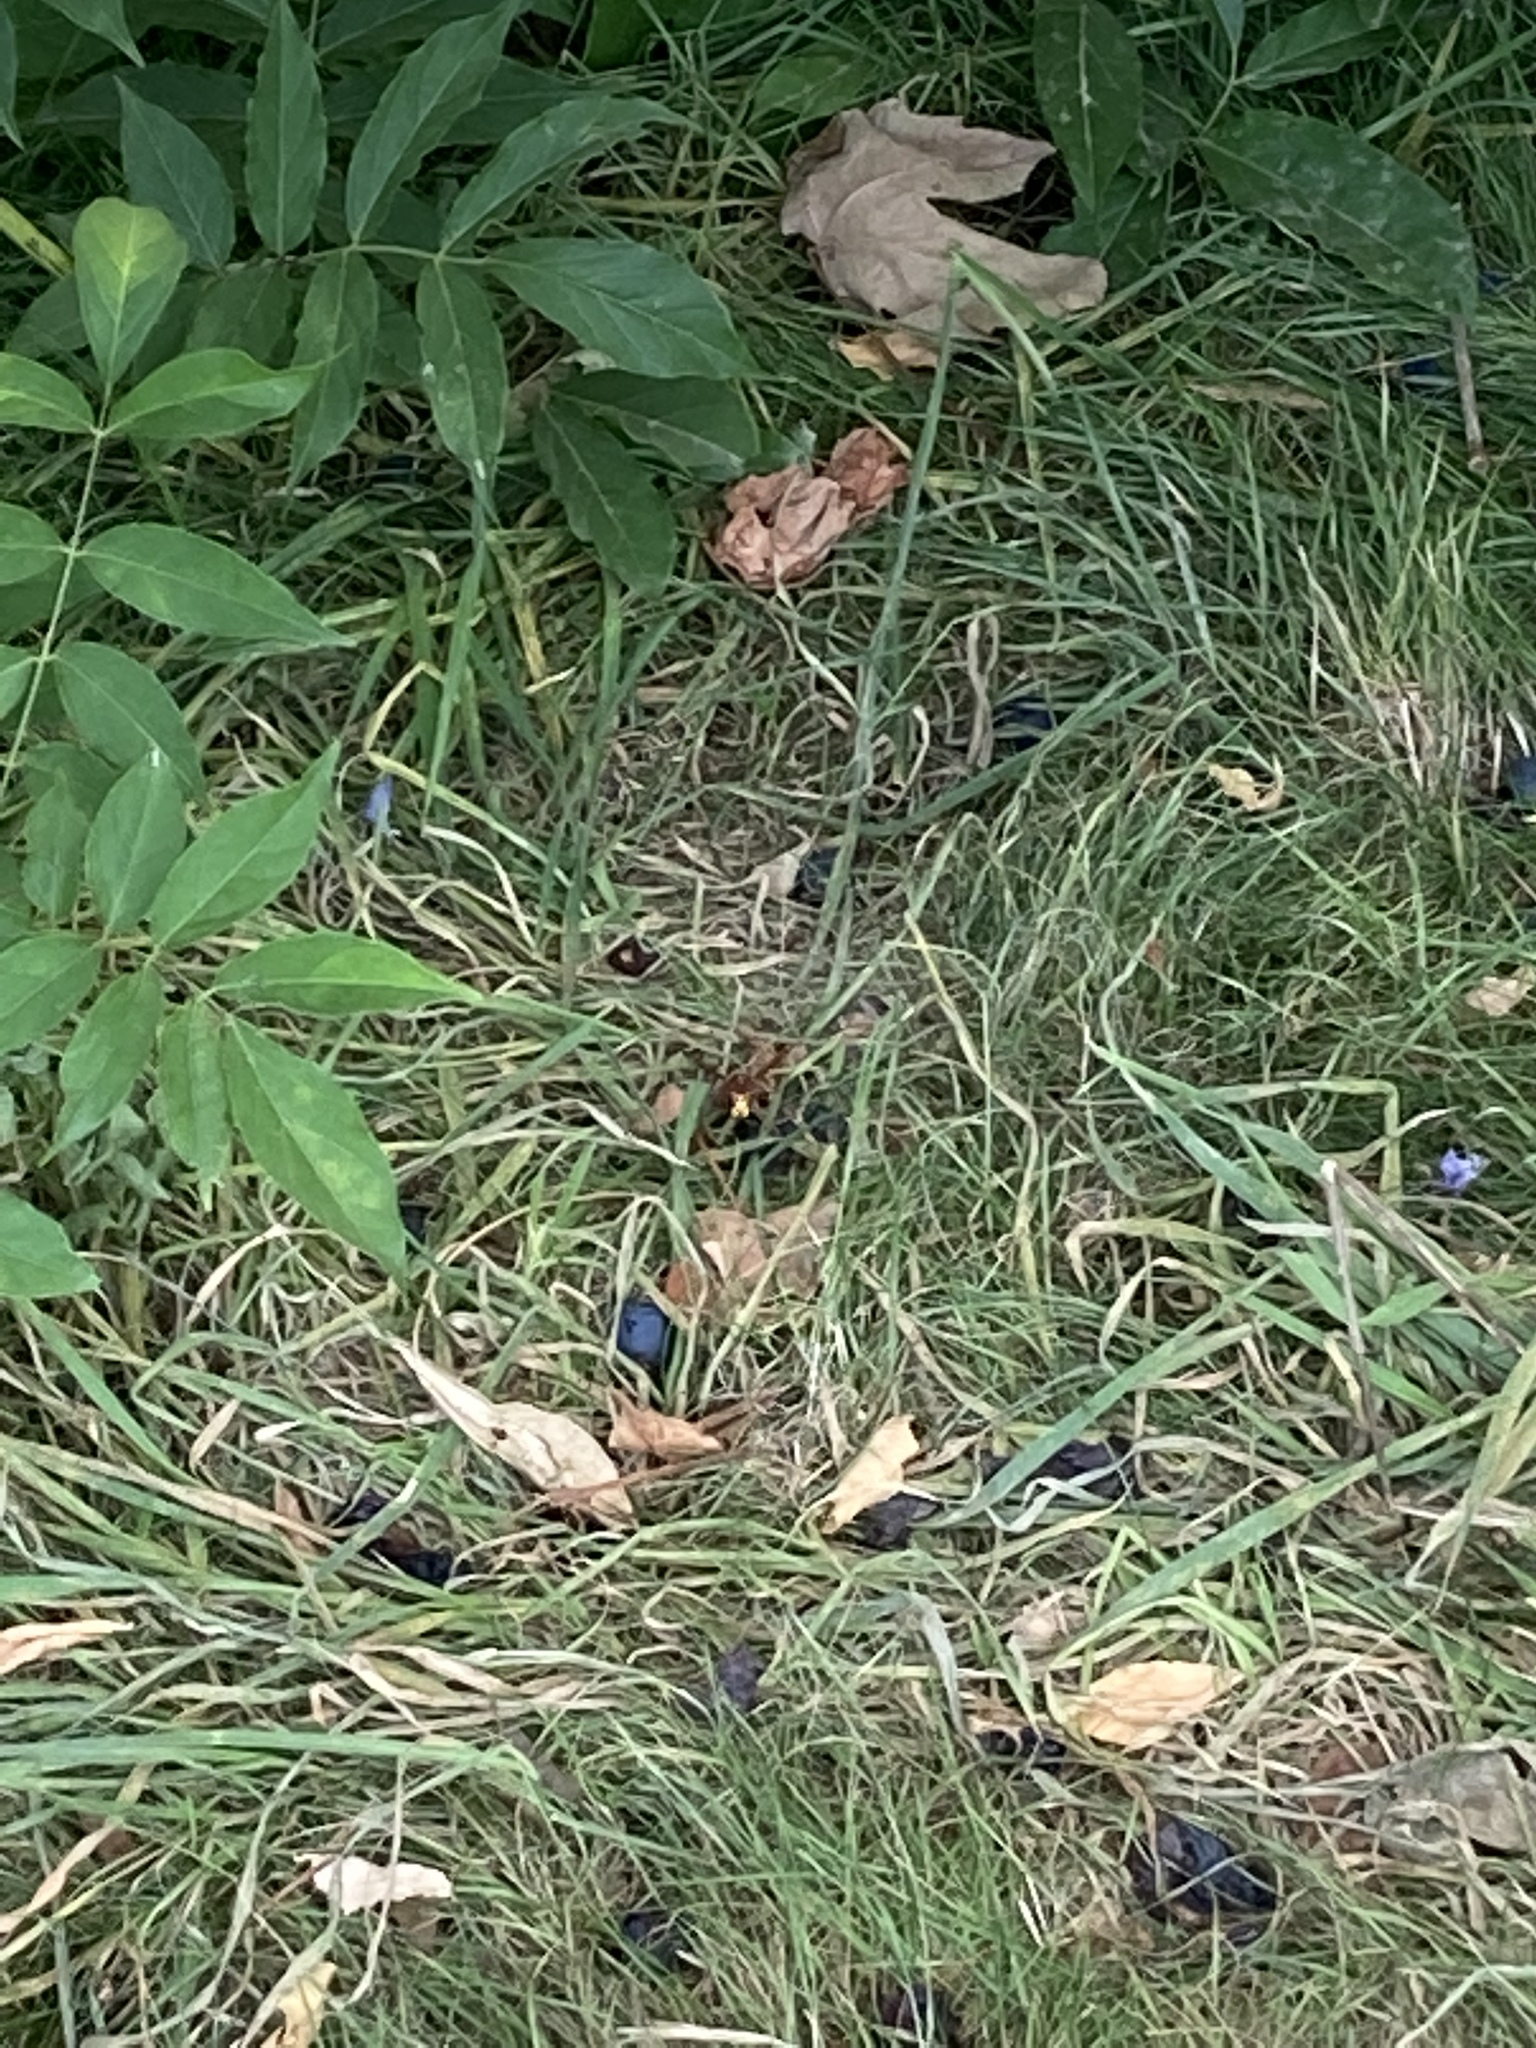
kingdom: Animalia
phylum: Arthropoda
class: Insecta
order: Hymenoptera
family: Vespidae
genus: Vespa
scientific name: Vespa crabro
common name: Hornet
